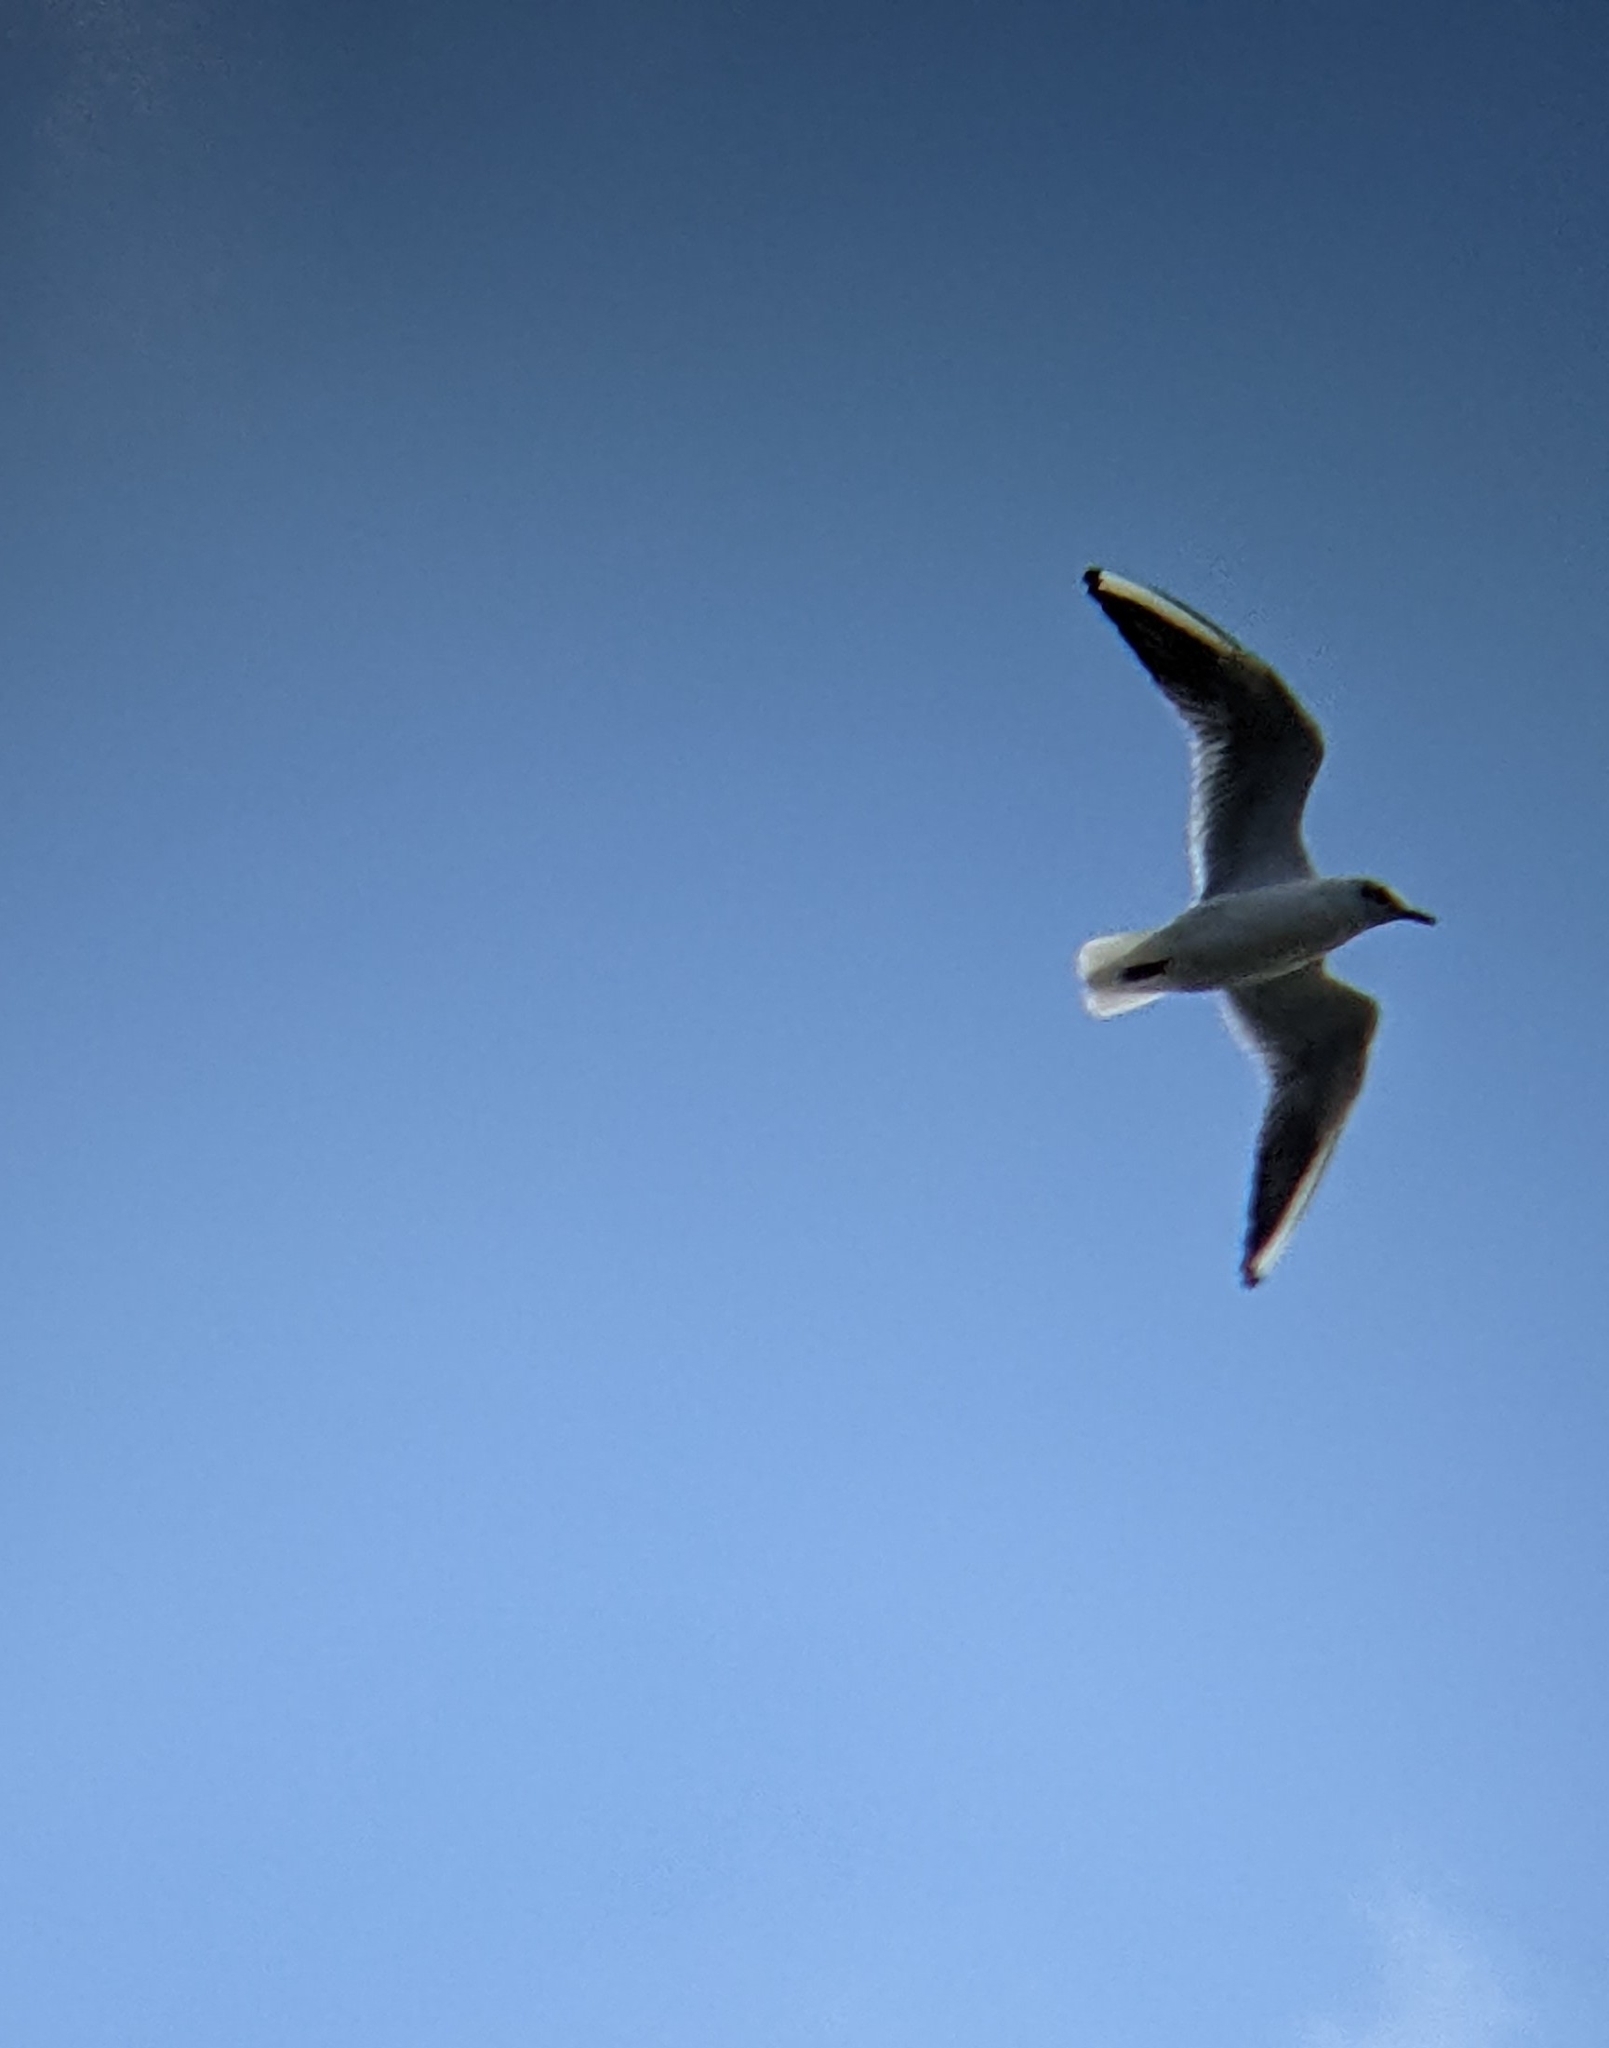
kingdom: Animalia
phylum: Chordata
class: Aves
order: Charadriiformes
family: Laridae
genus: Chroicocephalus
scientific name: Chroicocephalus ridibundus
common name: Black-headed gull
